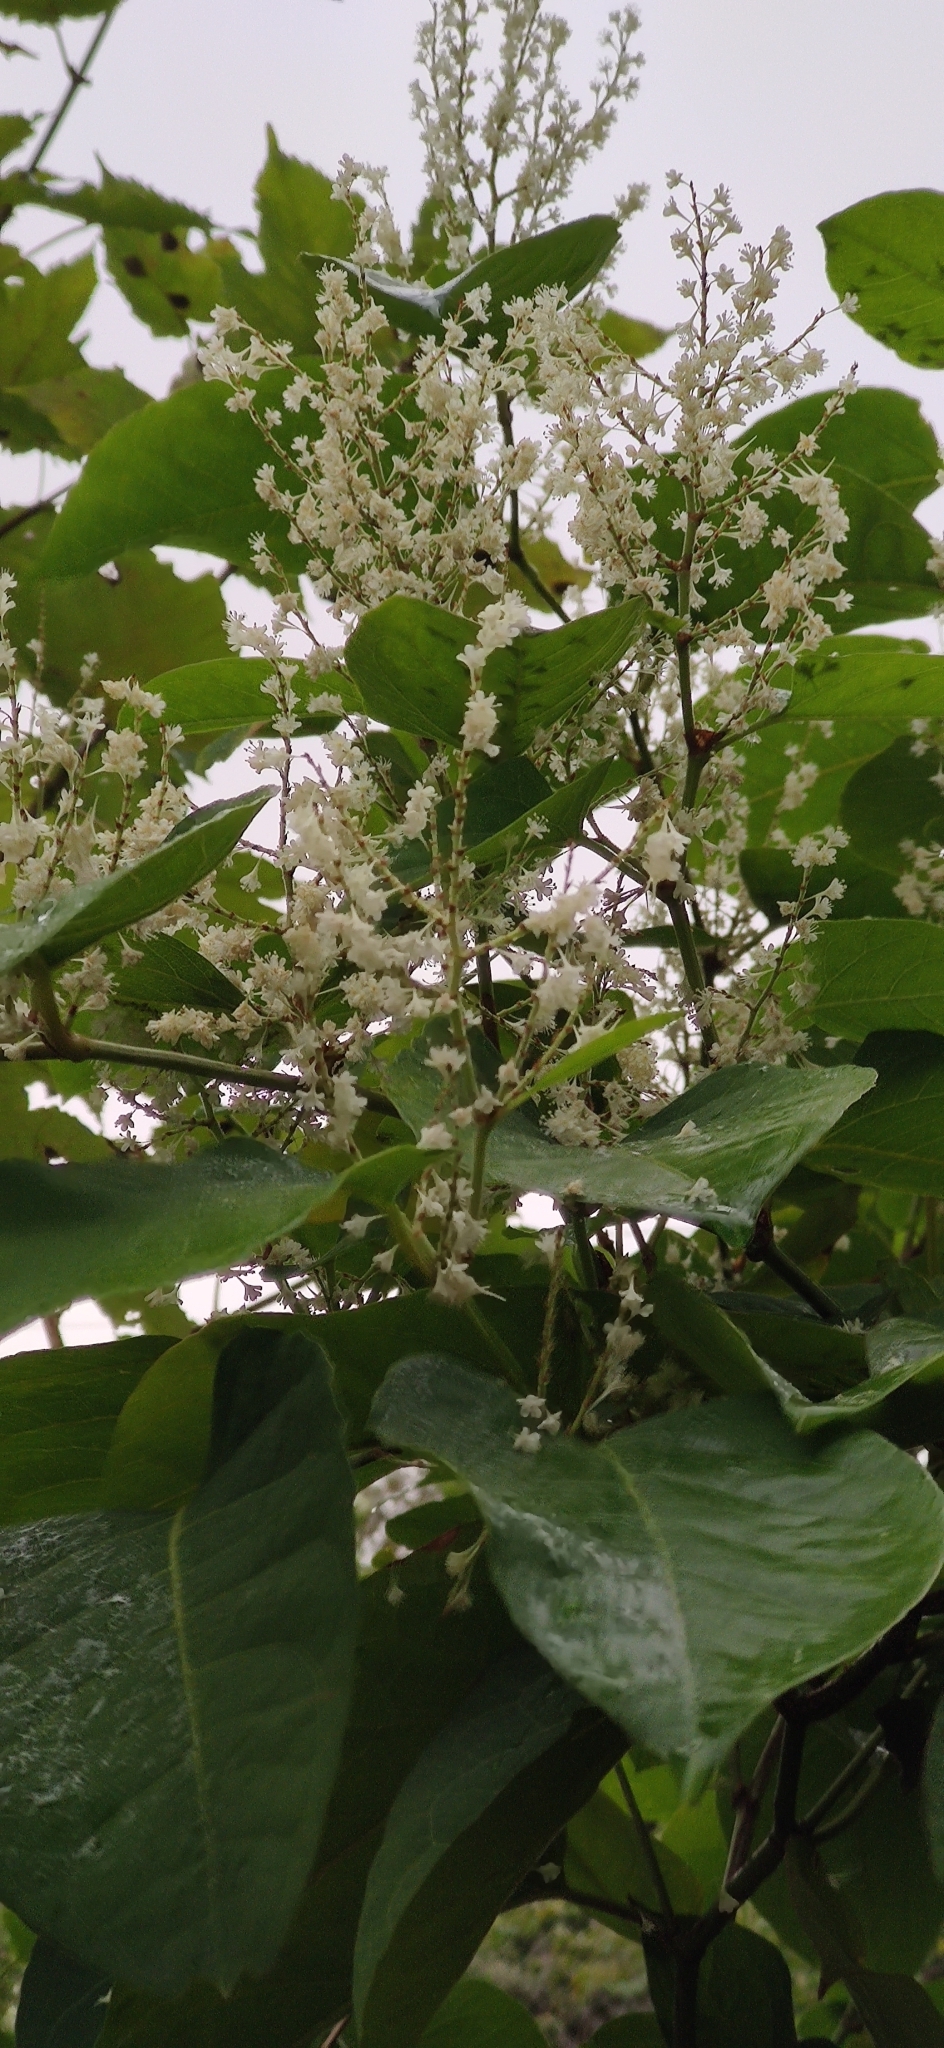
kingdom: Plantae
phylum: Tracheophyta
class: Magnoliopsida
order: Caryophyllales
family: Polygonaceae
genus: Reynoutria
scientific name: Reynoutria japonica
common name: Japanese knotweed
